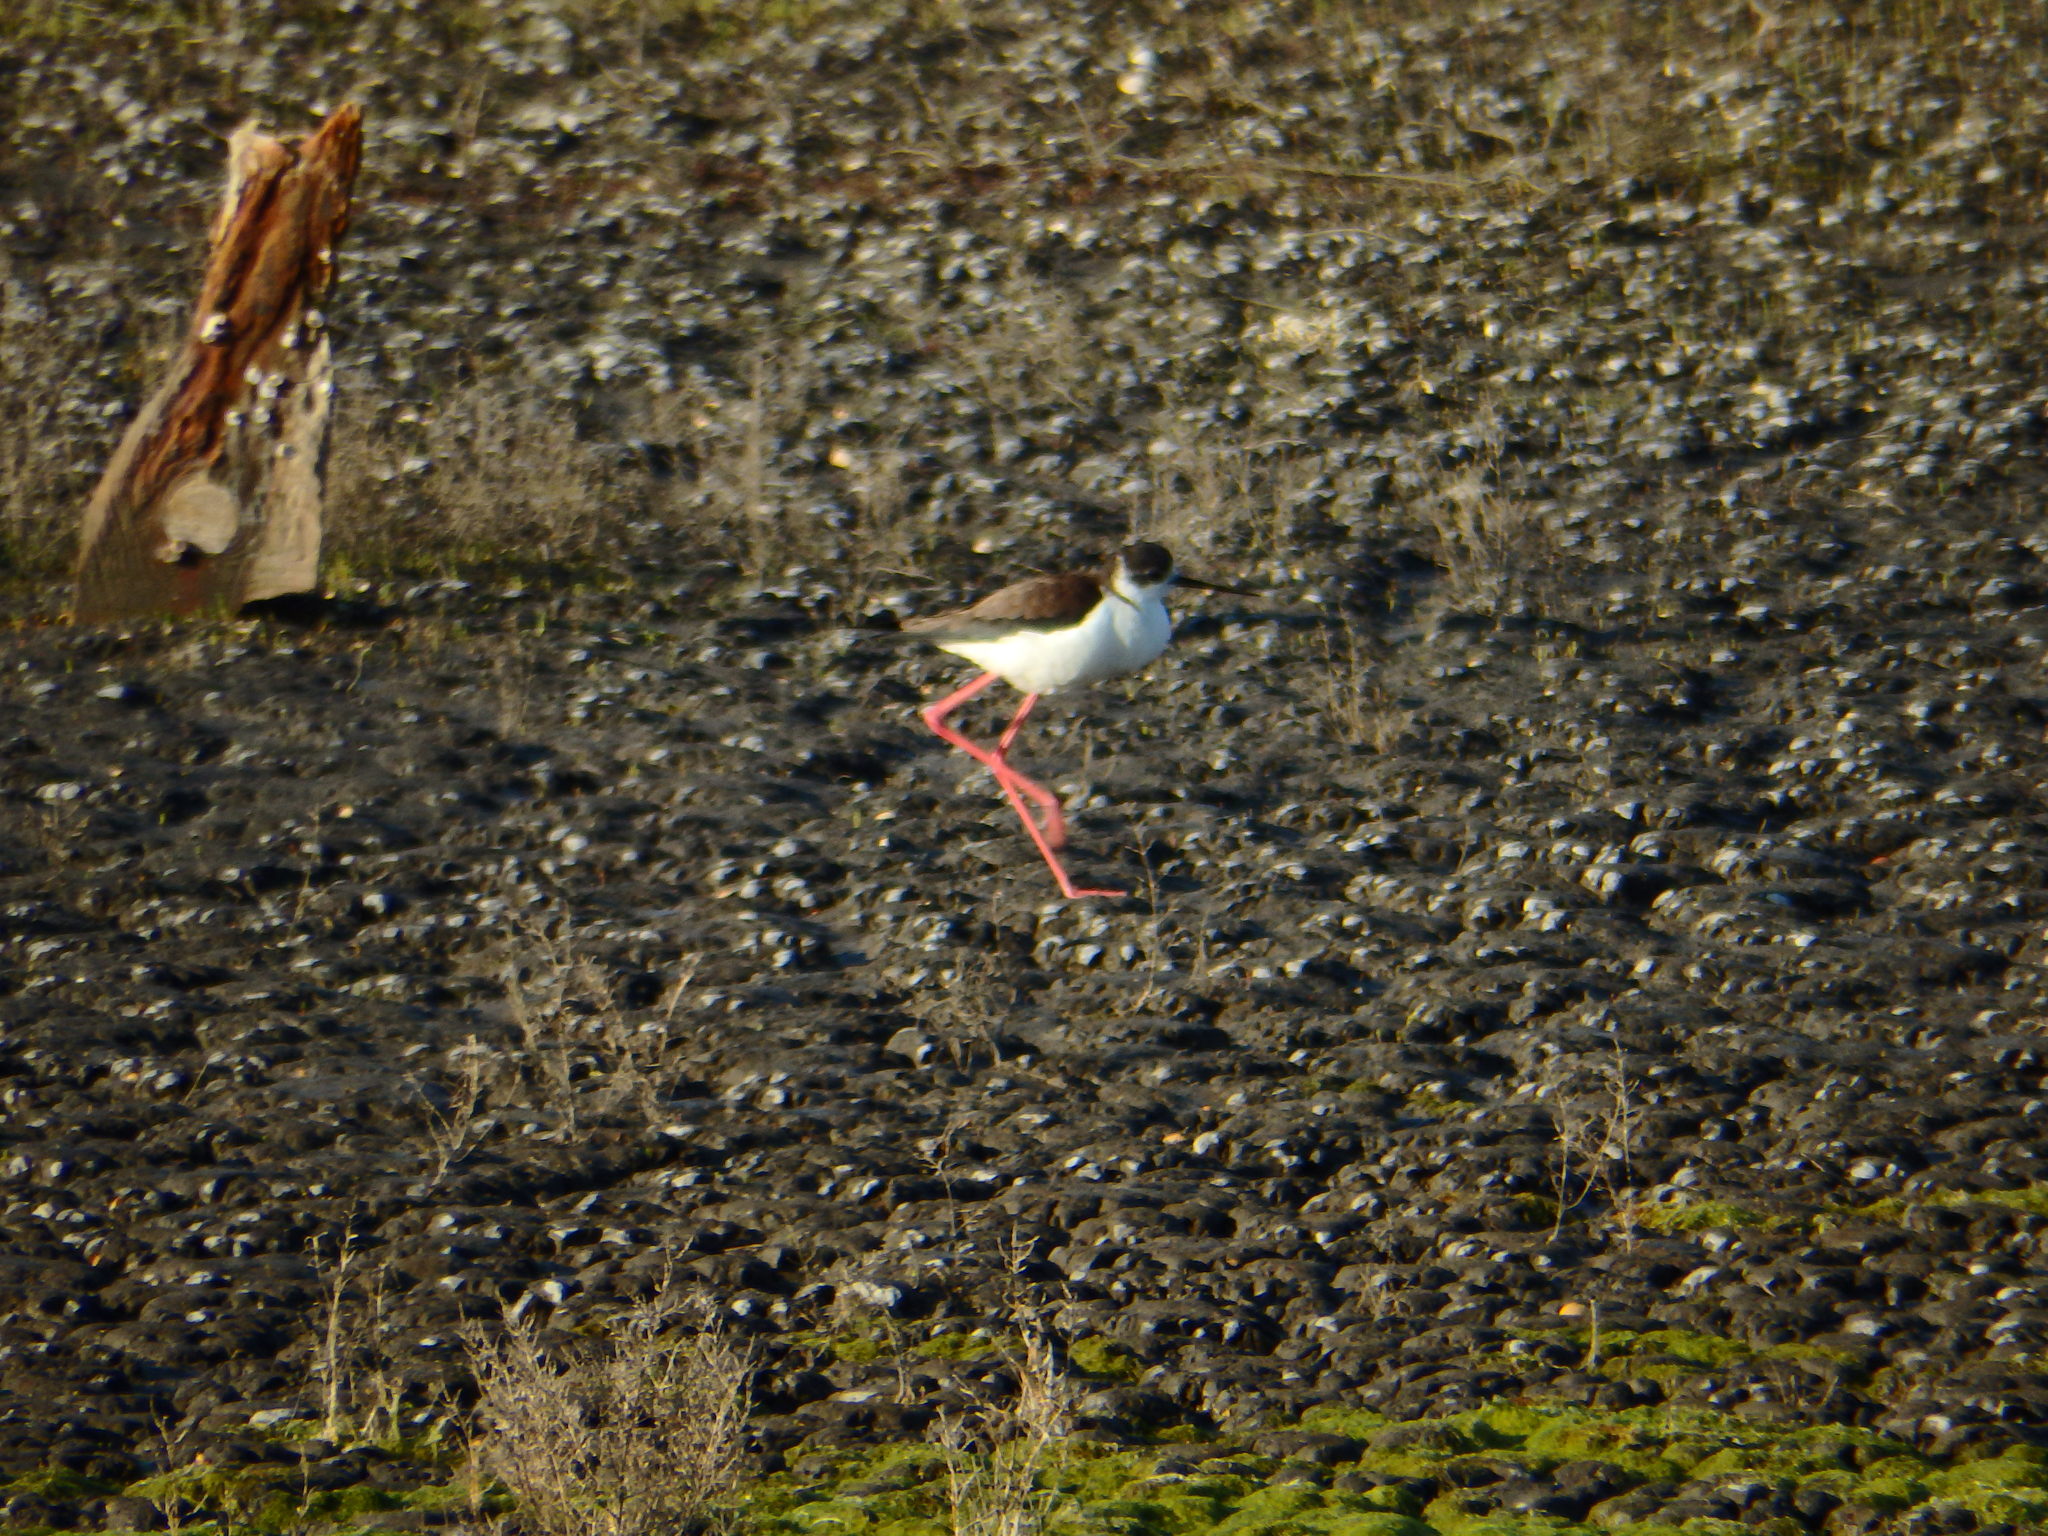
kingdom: Animalia
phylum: Chordata
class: Aves
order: Charadriiformes
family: Recurvirostridae
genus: Himantopus
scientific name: Himantopus himantopus
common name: Black-winged stilt
